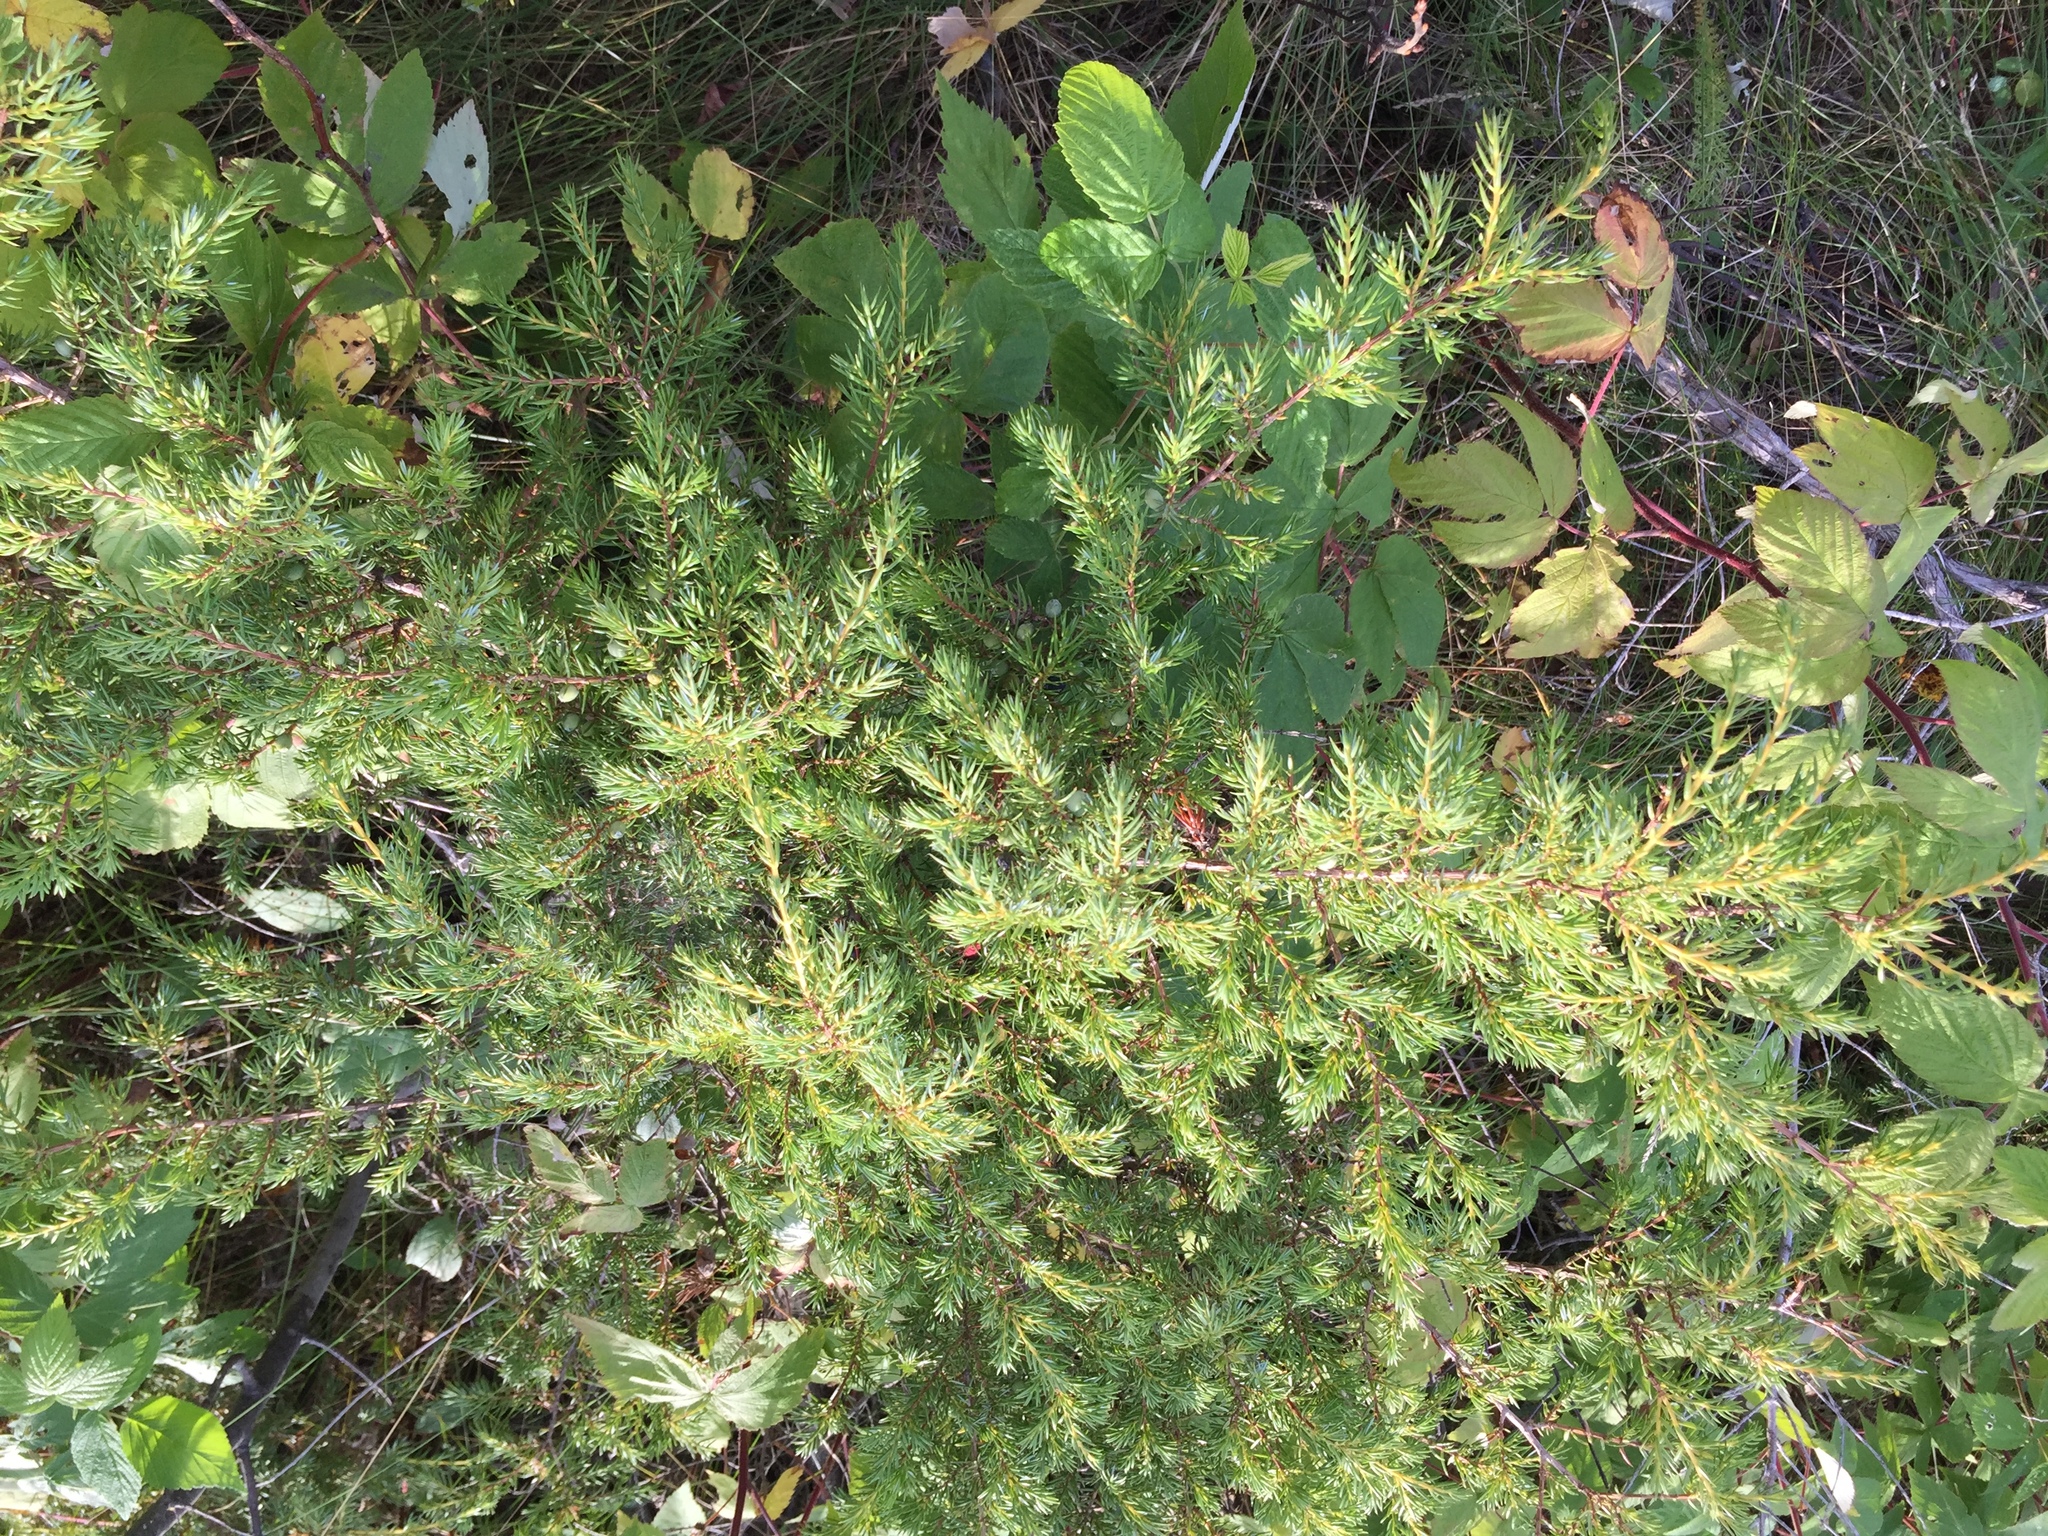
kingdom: Plantae
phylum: Tracheophyta
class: Pinopsida
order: Pinales
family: Cupressaceae
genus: Juniperus
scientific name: Juniperus communis
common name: Common juniper
